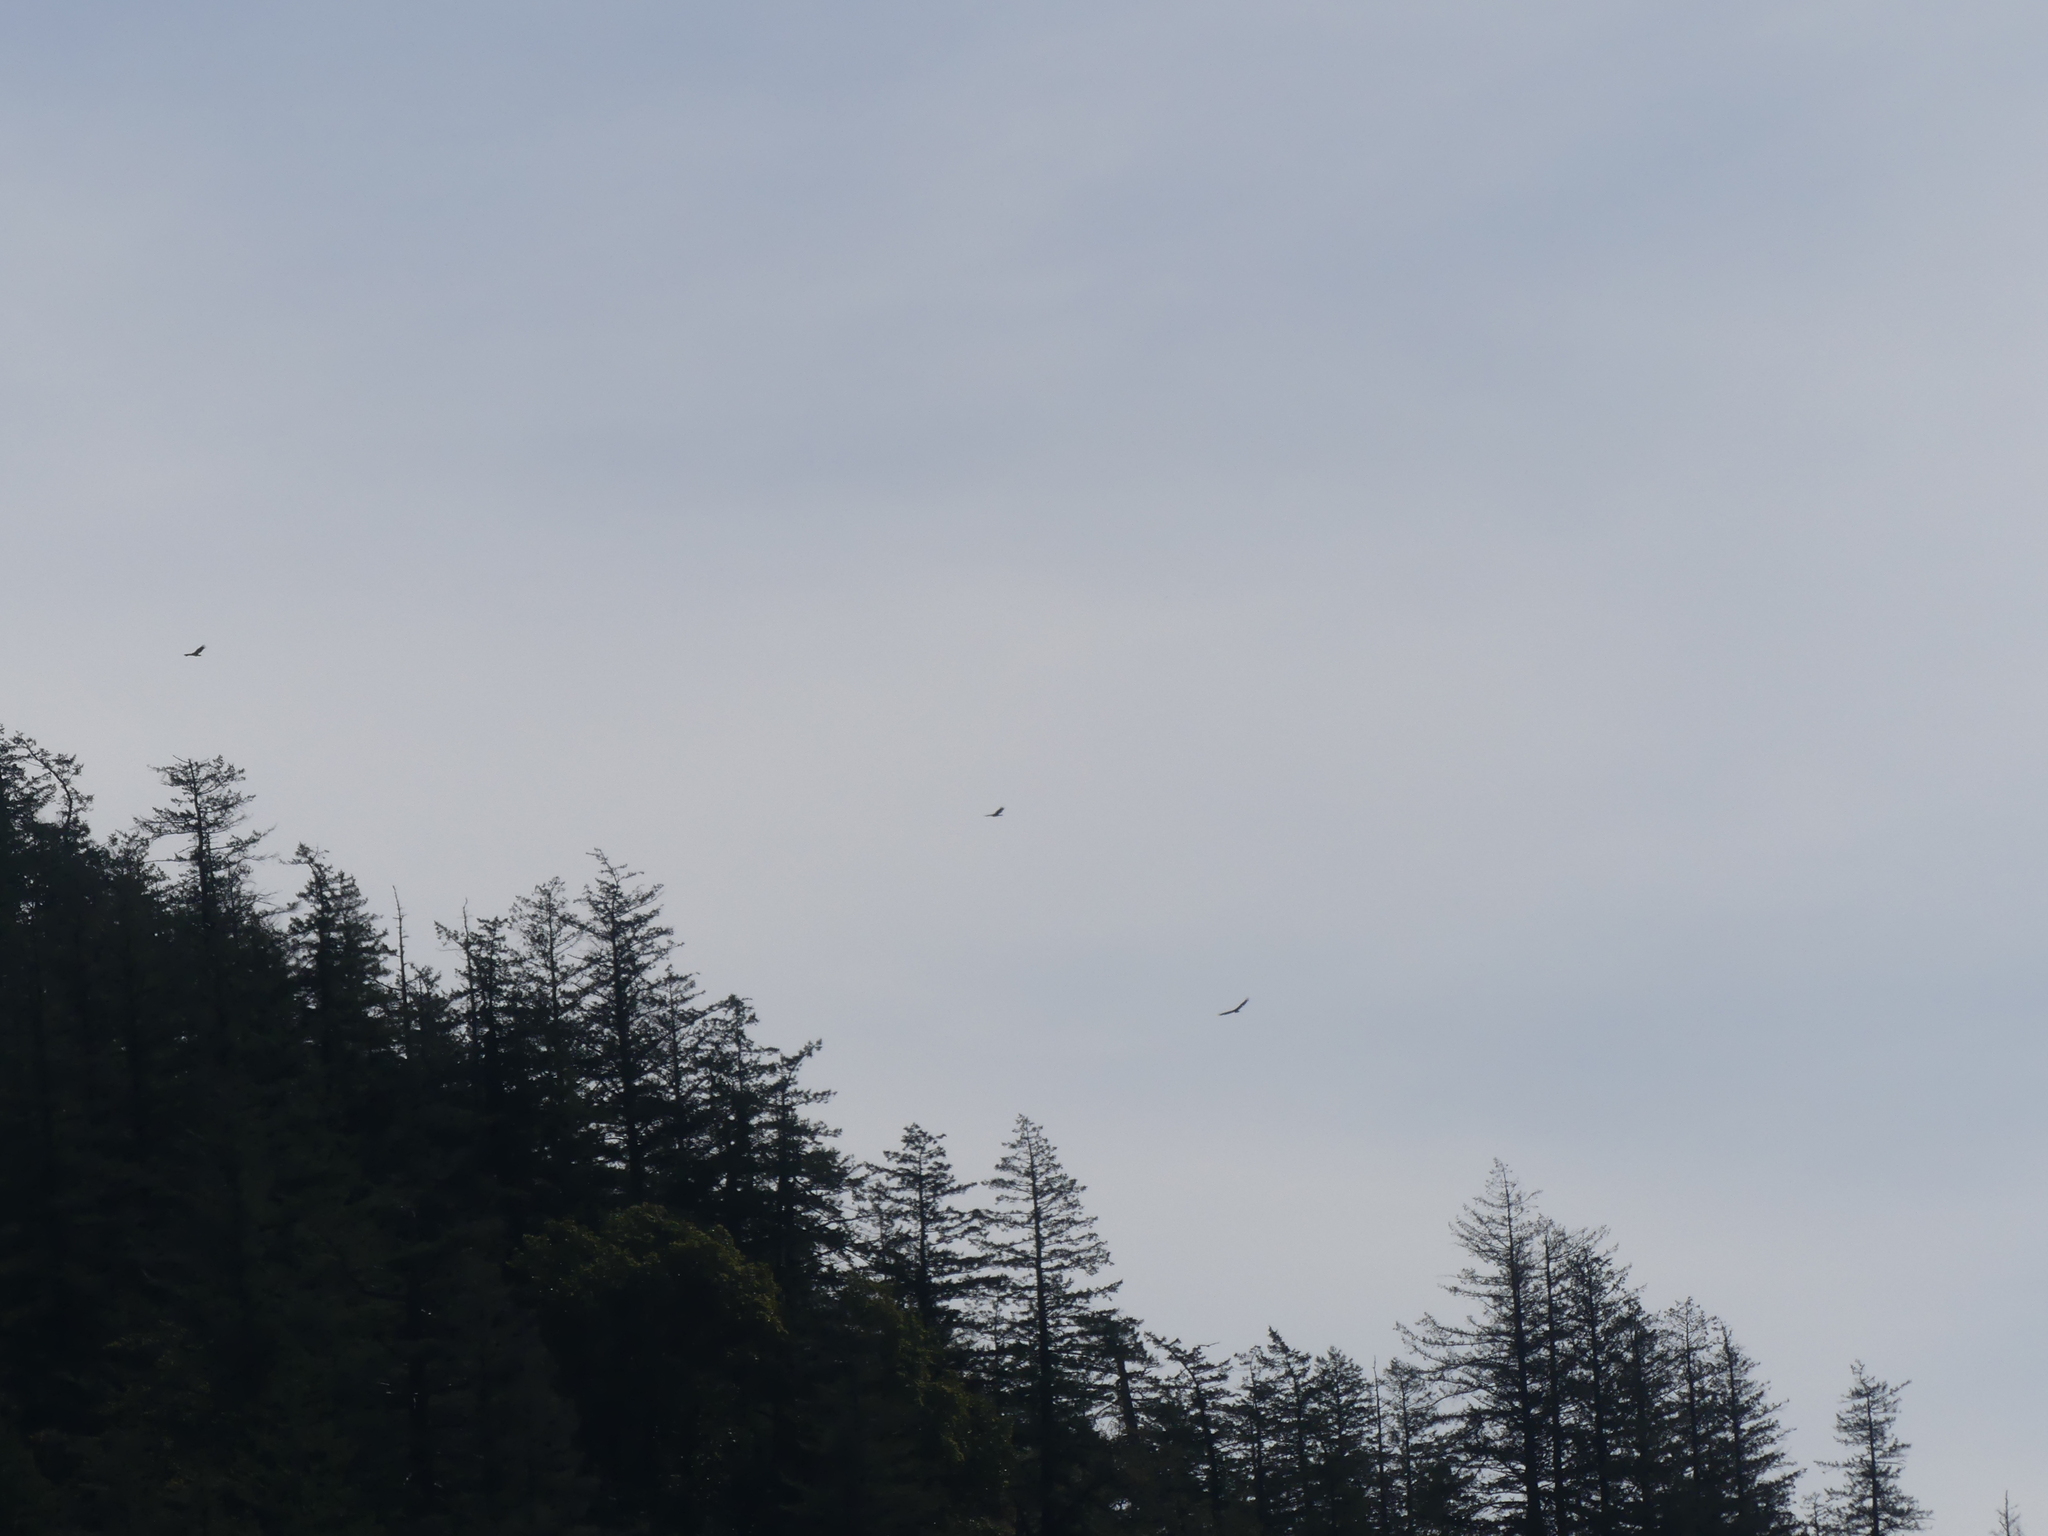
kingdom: Animalia
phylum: Chordata
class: Aves
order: Accipitriformes
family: Cathartidae
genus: Cathartes
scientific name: Cathartes aura
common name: Turkey vulture
